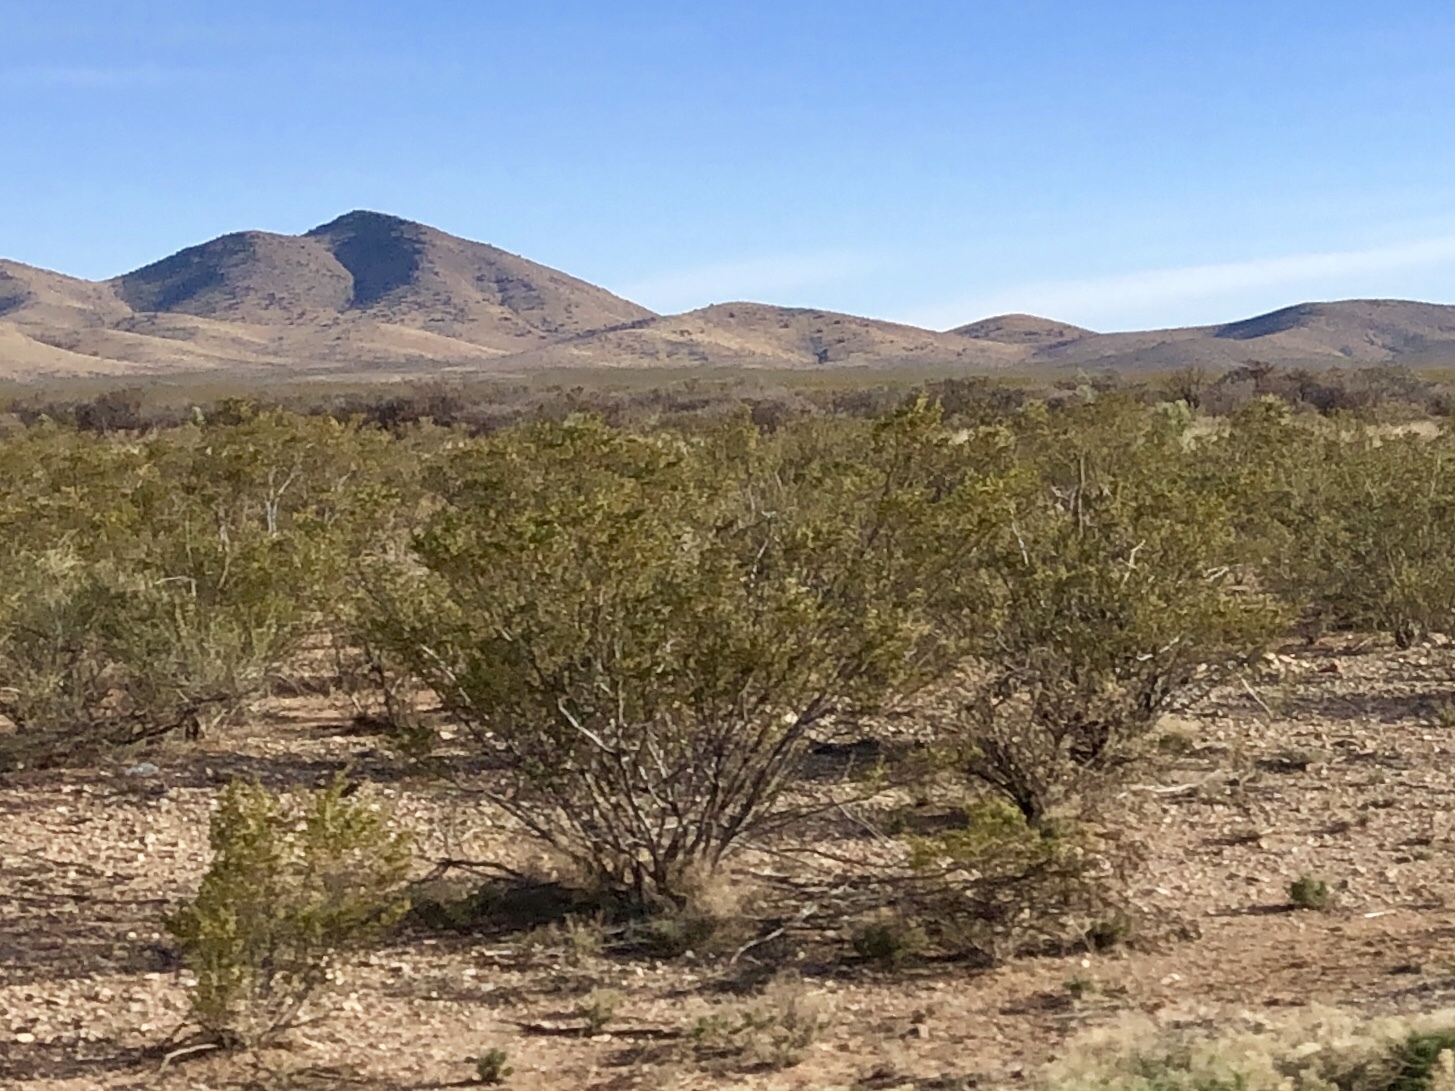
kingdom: Plantae
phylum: Tracheophyta
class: Magnoliopsida
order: Zygophyllales
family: Zygophyllaceae
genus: Larrea
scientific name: Larrea tridentata
